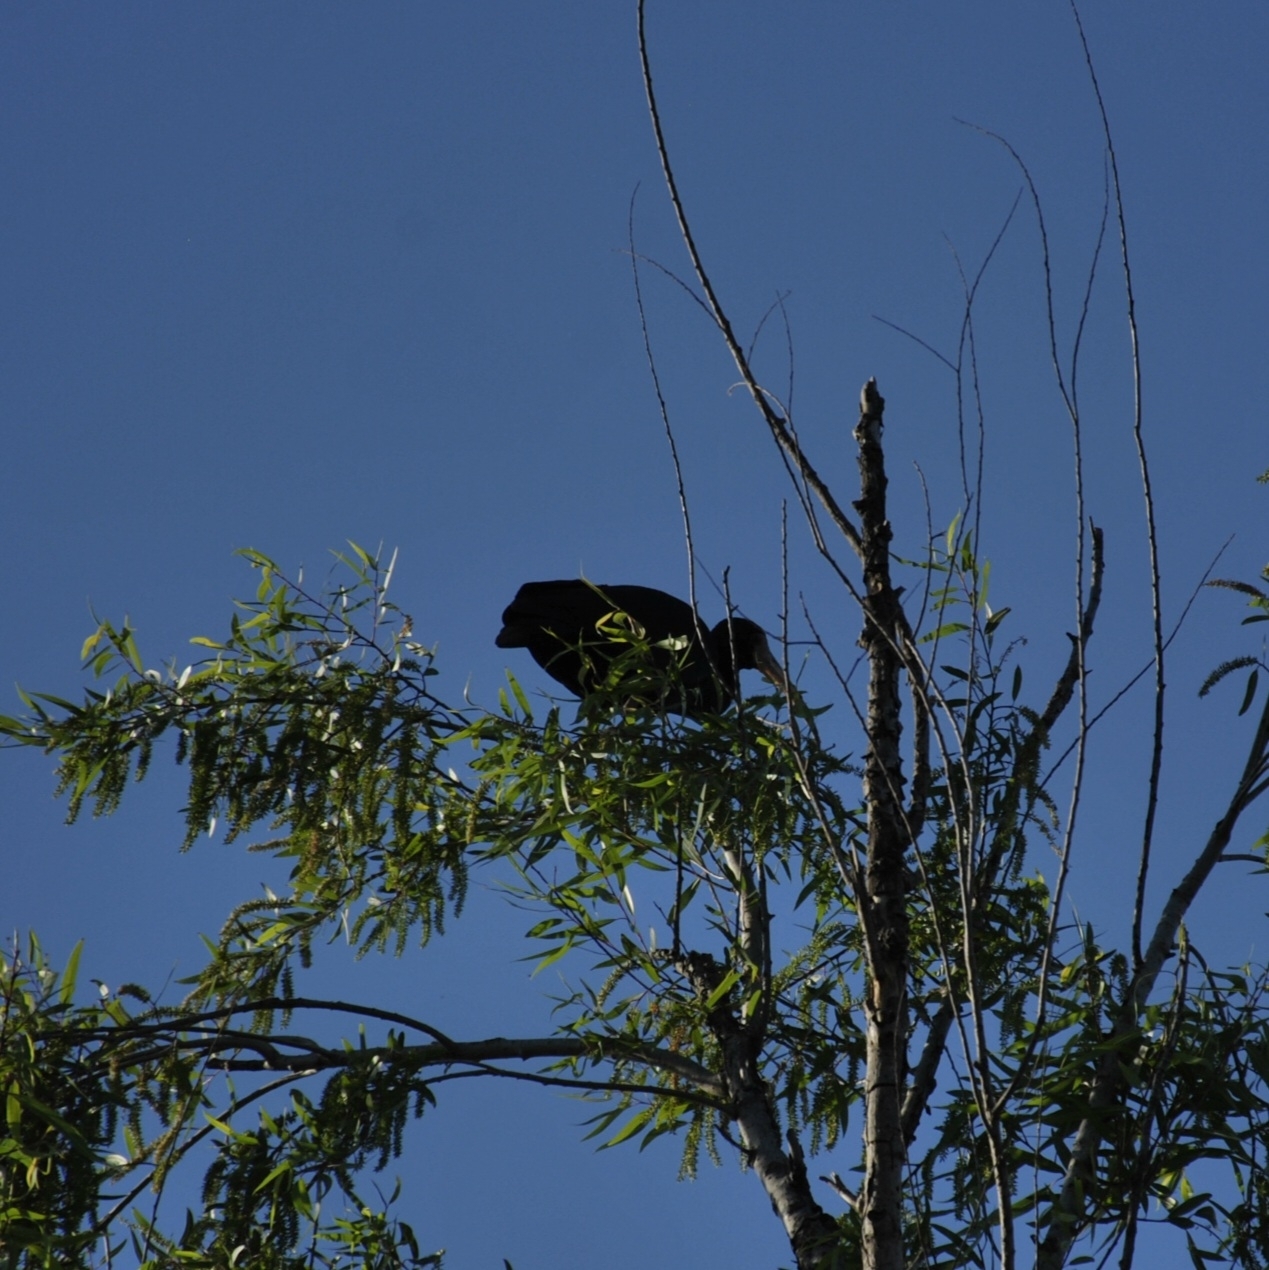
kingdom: Animalia
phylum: Chordata
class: Aves
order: Pelecaniformes
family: Threskiornithidae
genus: Phimosus
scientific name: Phimosus infuscatus
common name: Bare-faced ibis
